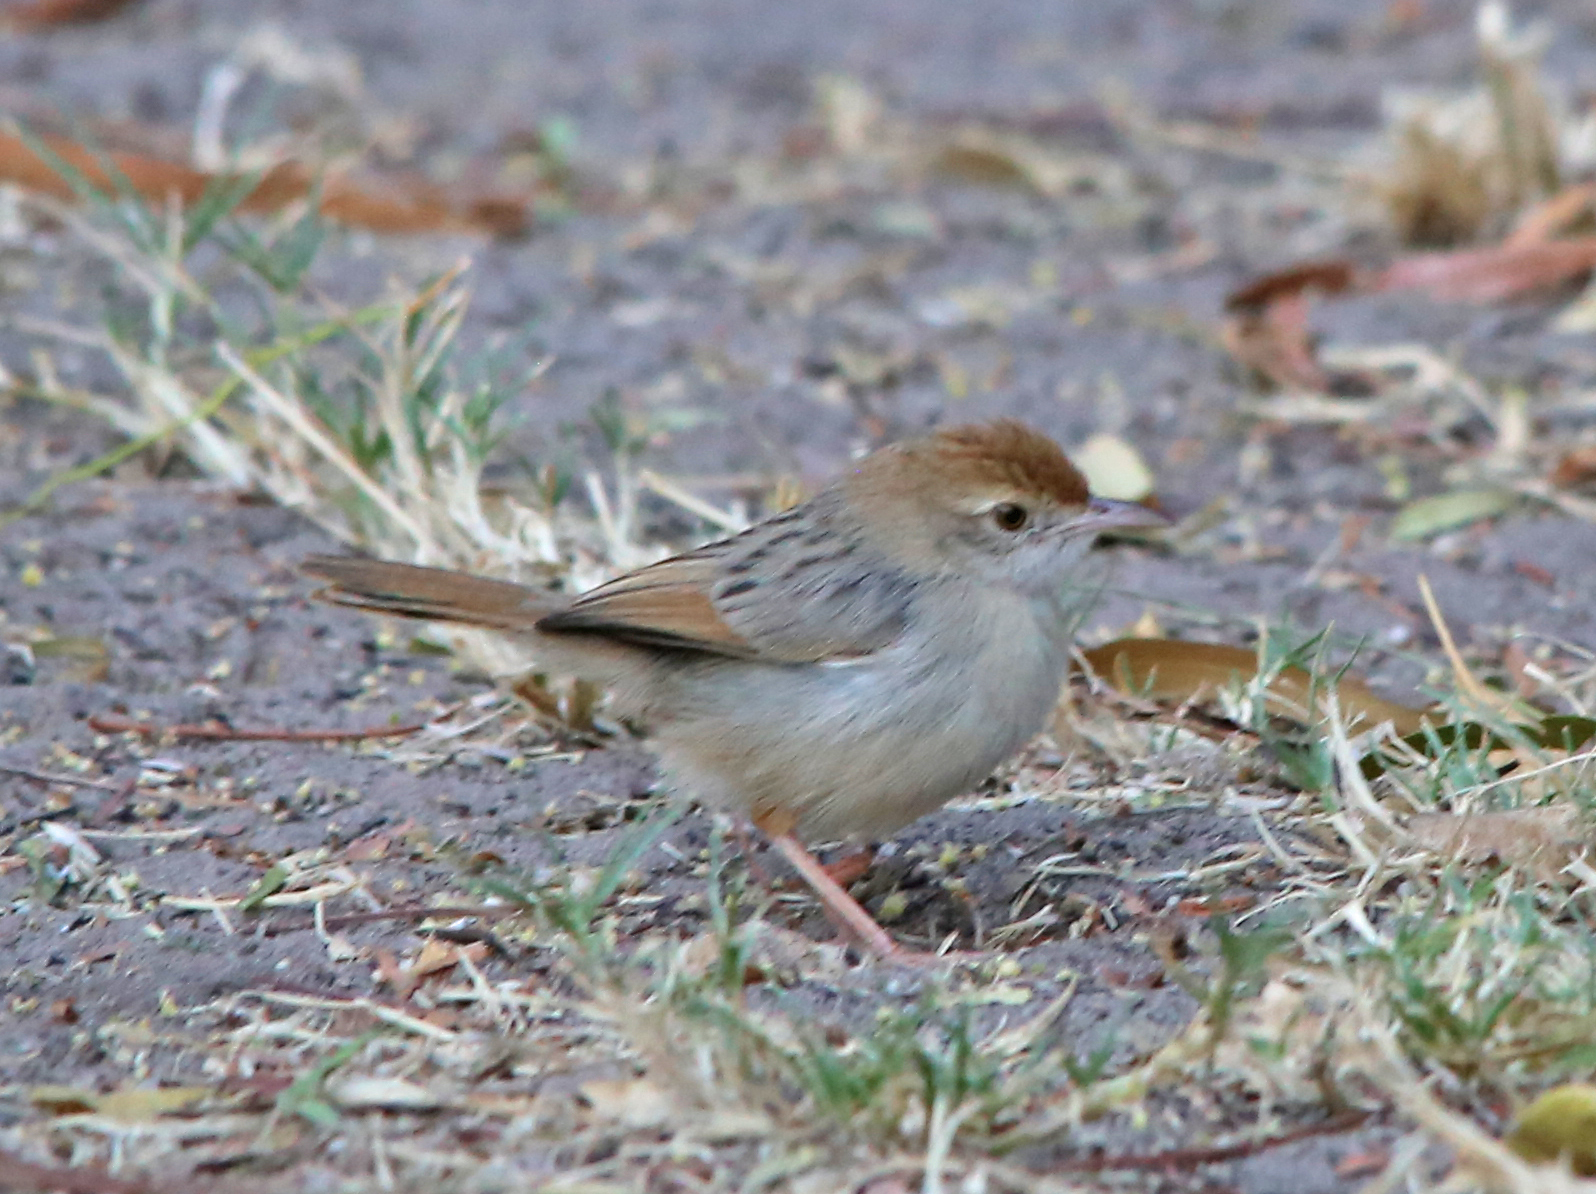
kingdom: Animalia
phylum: Chordata
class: Aves
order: Passeriformes
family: Cisticolidae
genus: Cisticola
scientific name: Cisticola chiniana
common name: Rattling cisticola
